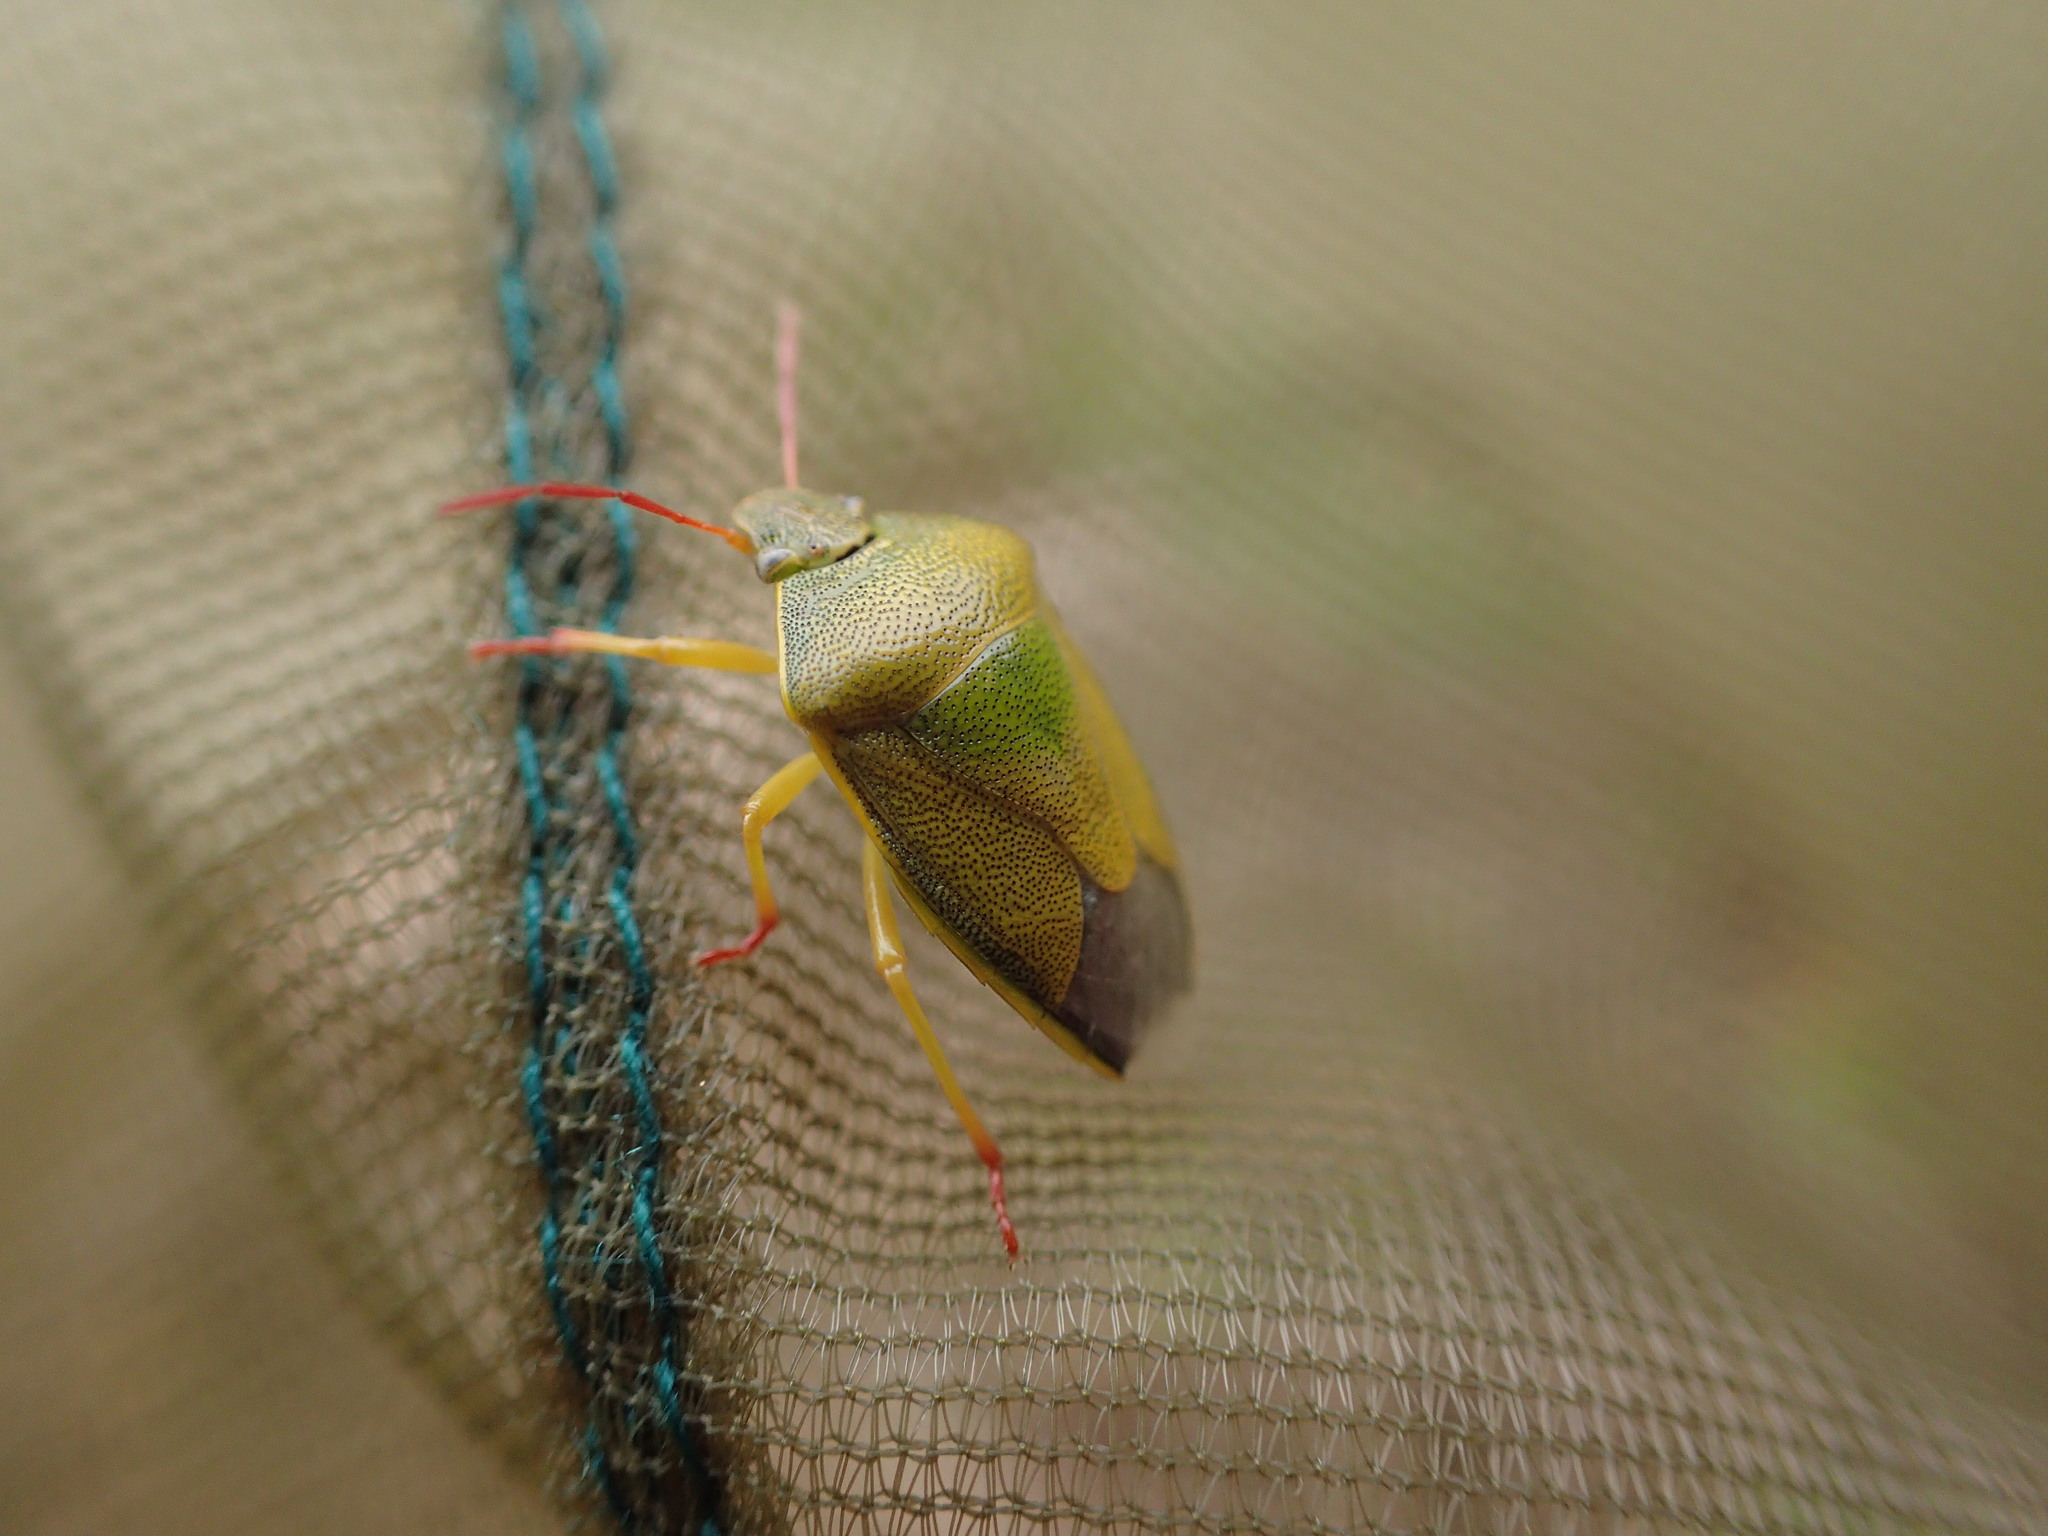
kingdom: Animalia
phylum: Arthropoda
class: Insecta
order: Hemiptera
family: Pentatomidae
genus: Piezodorus
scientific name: Piezodorus lituratus
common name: Stink bug
